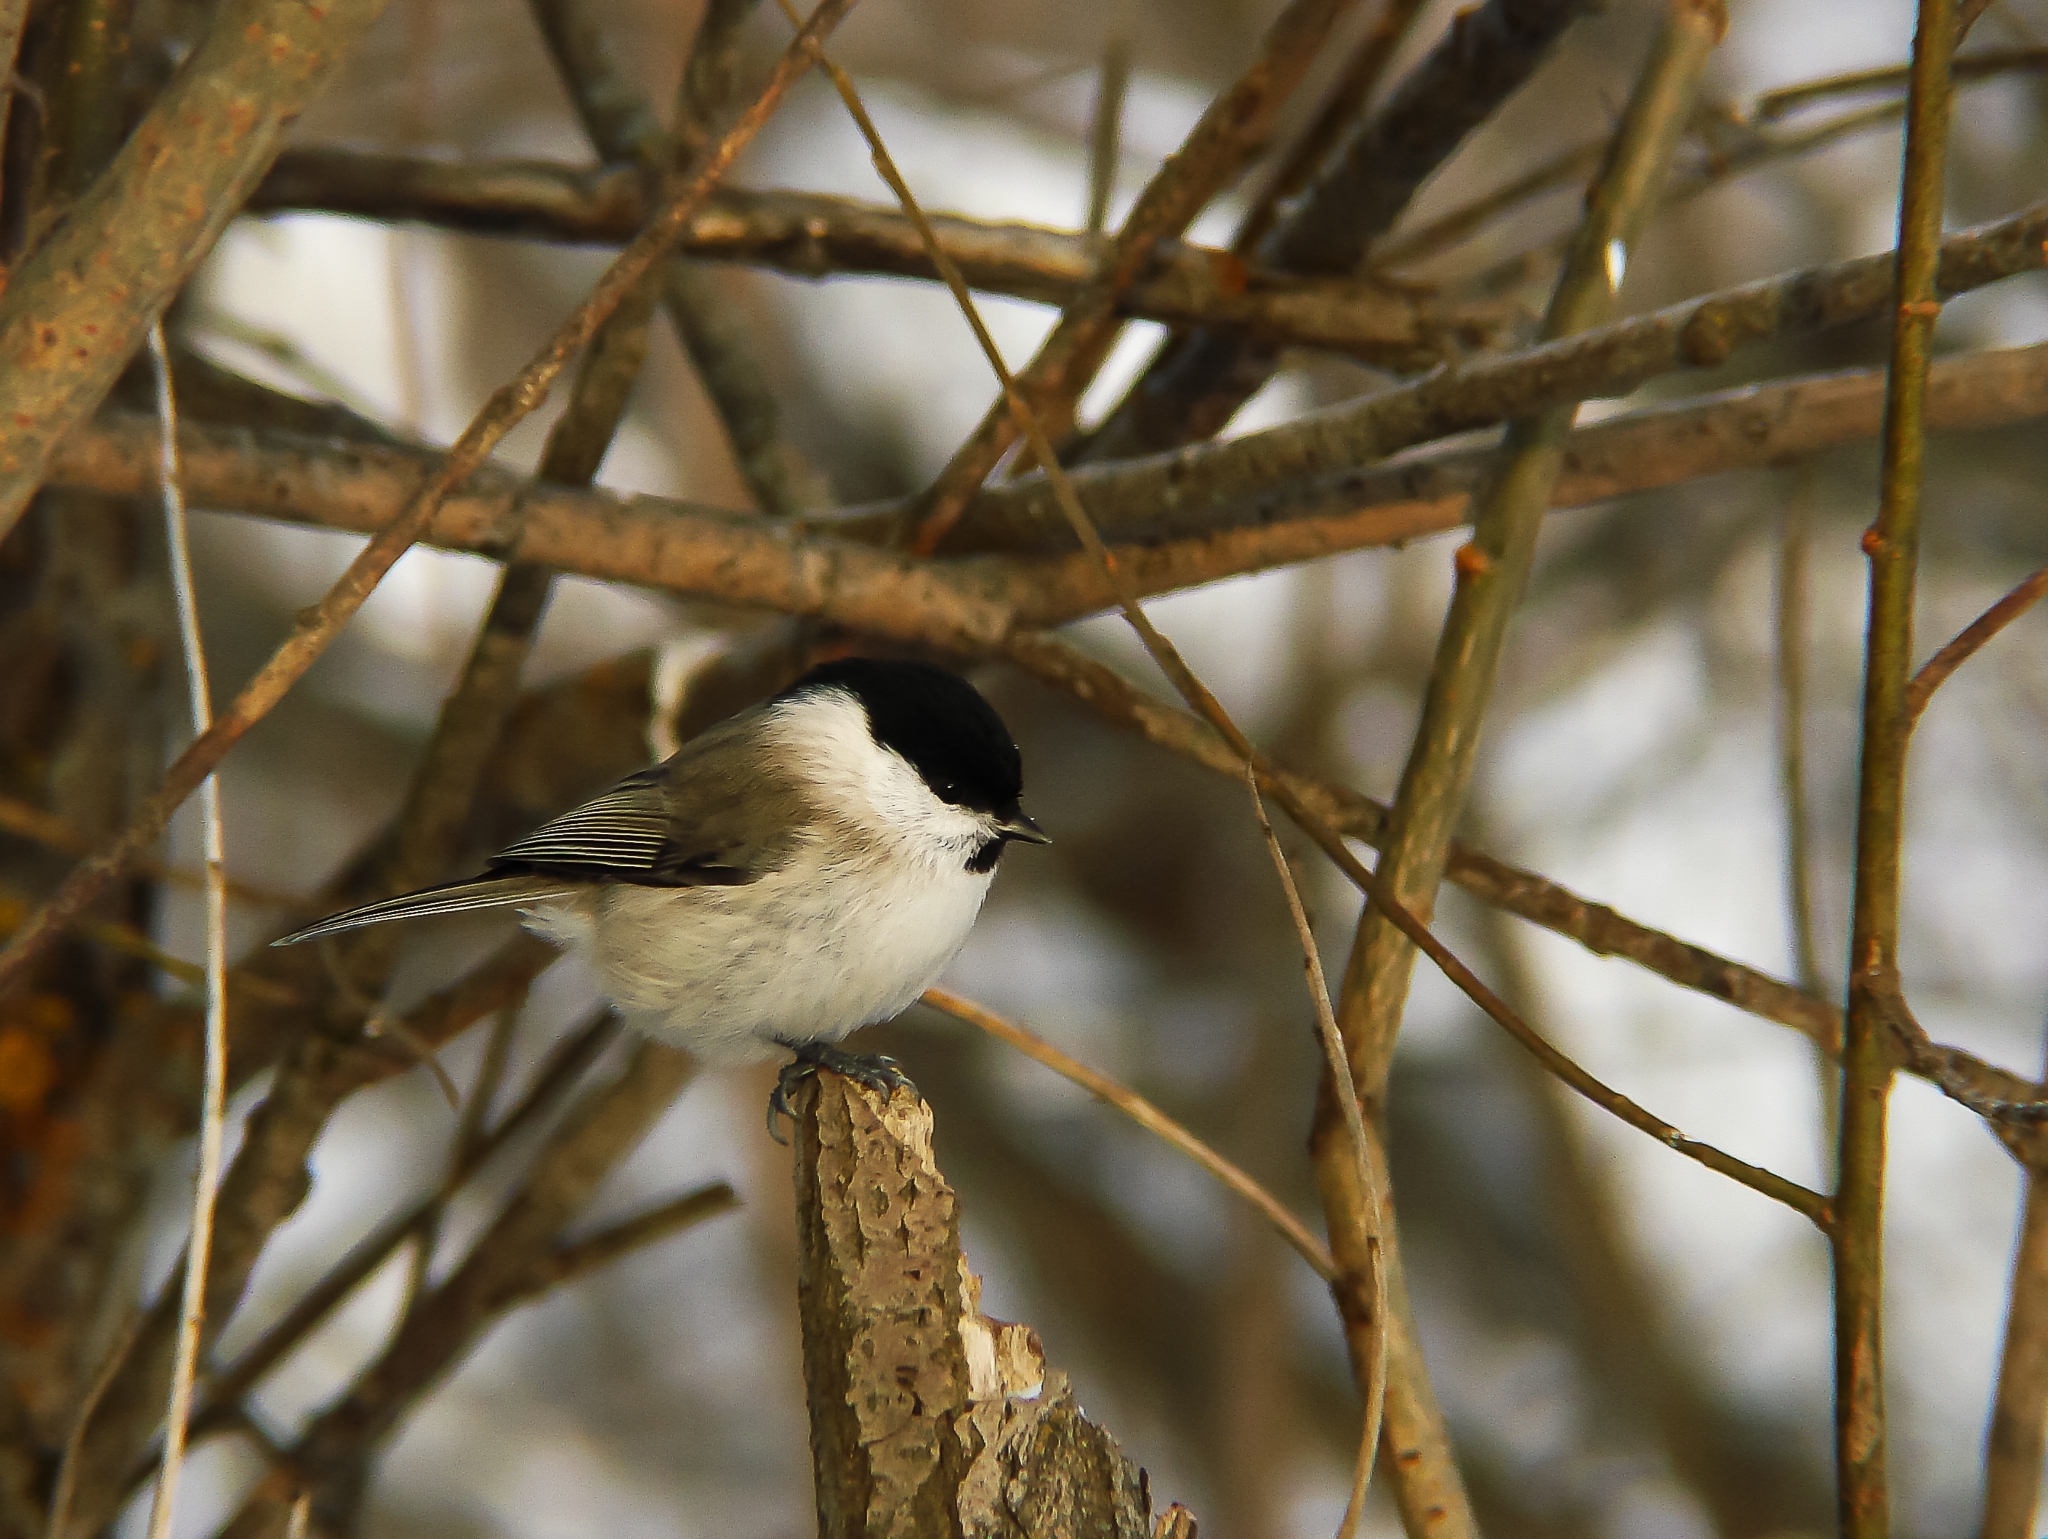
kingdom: Animalia
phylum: Chordata
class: Aves
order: Passeriformes
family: Paridae
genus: Poecile
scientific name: Poecile palustris
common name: Marsh tit
